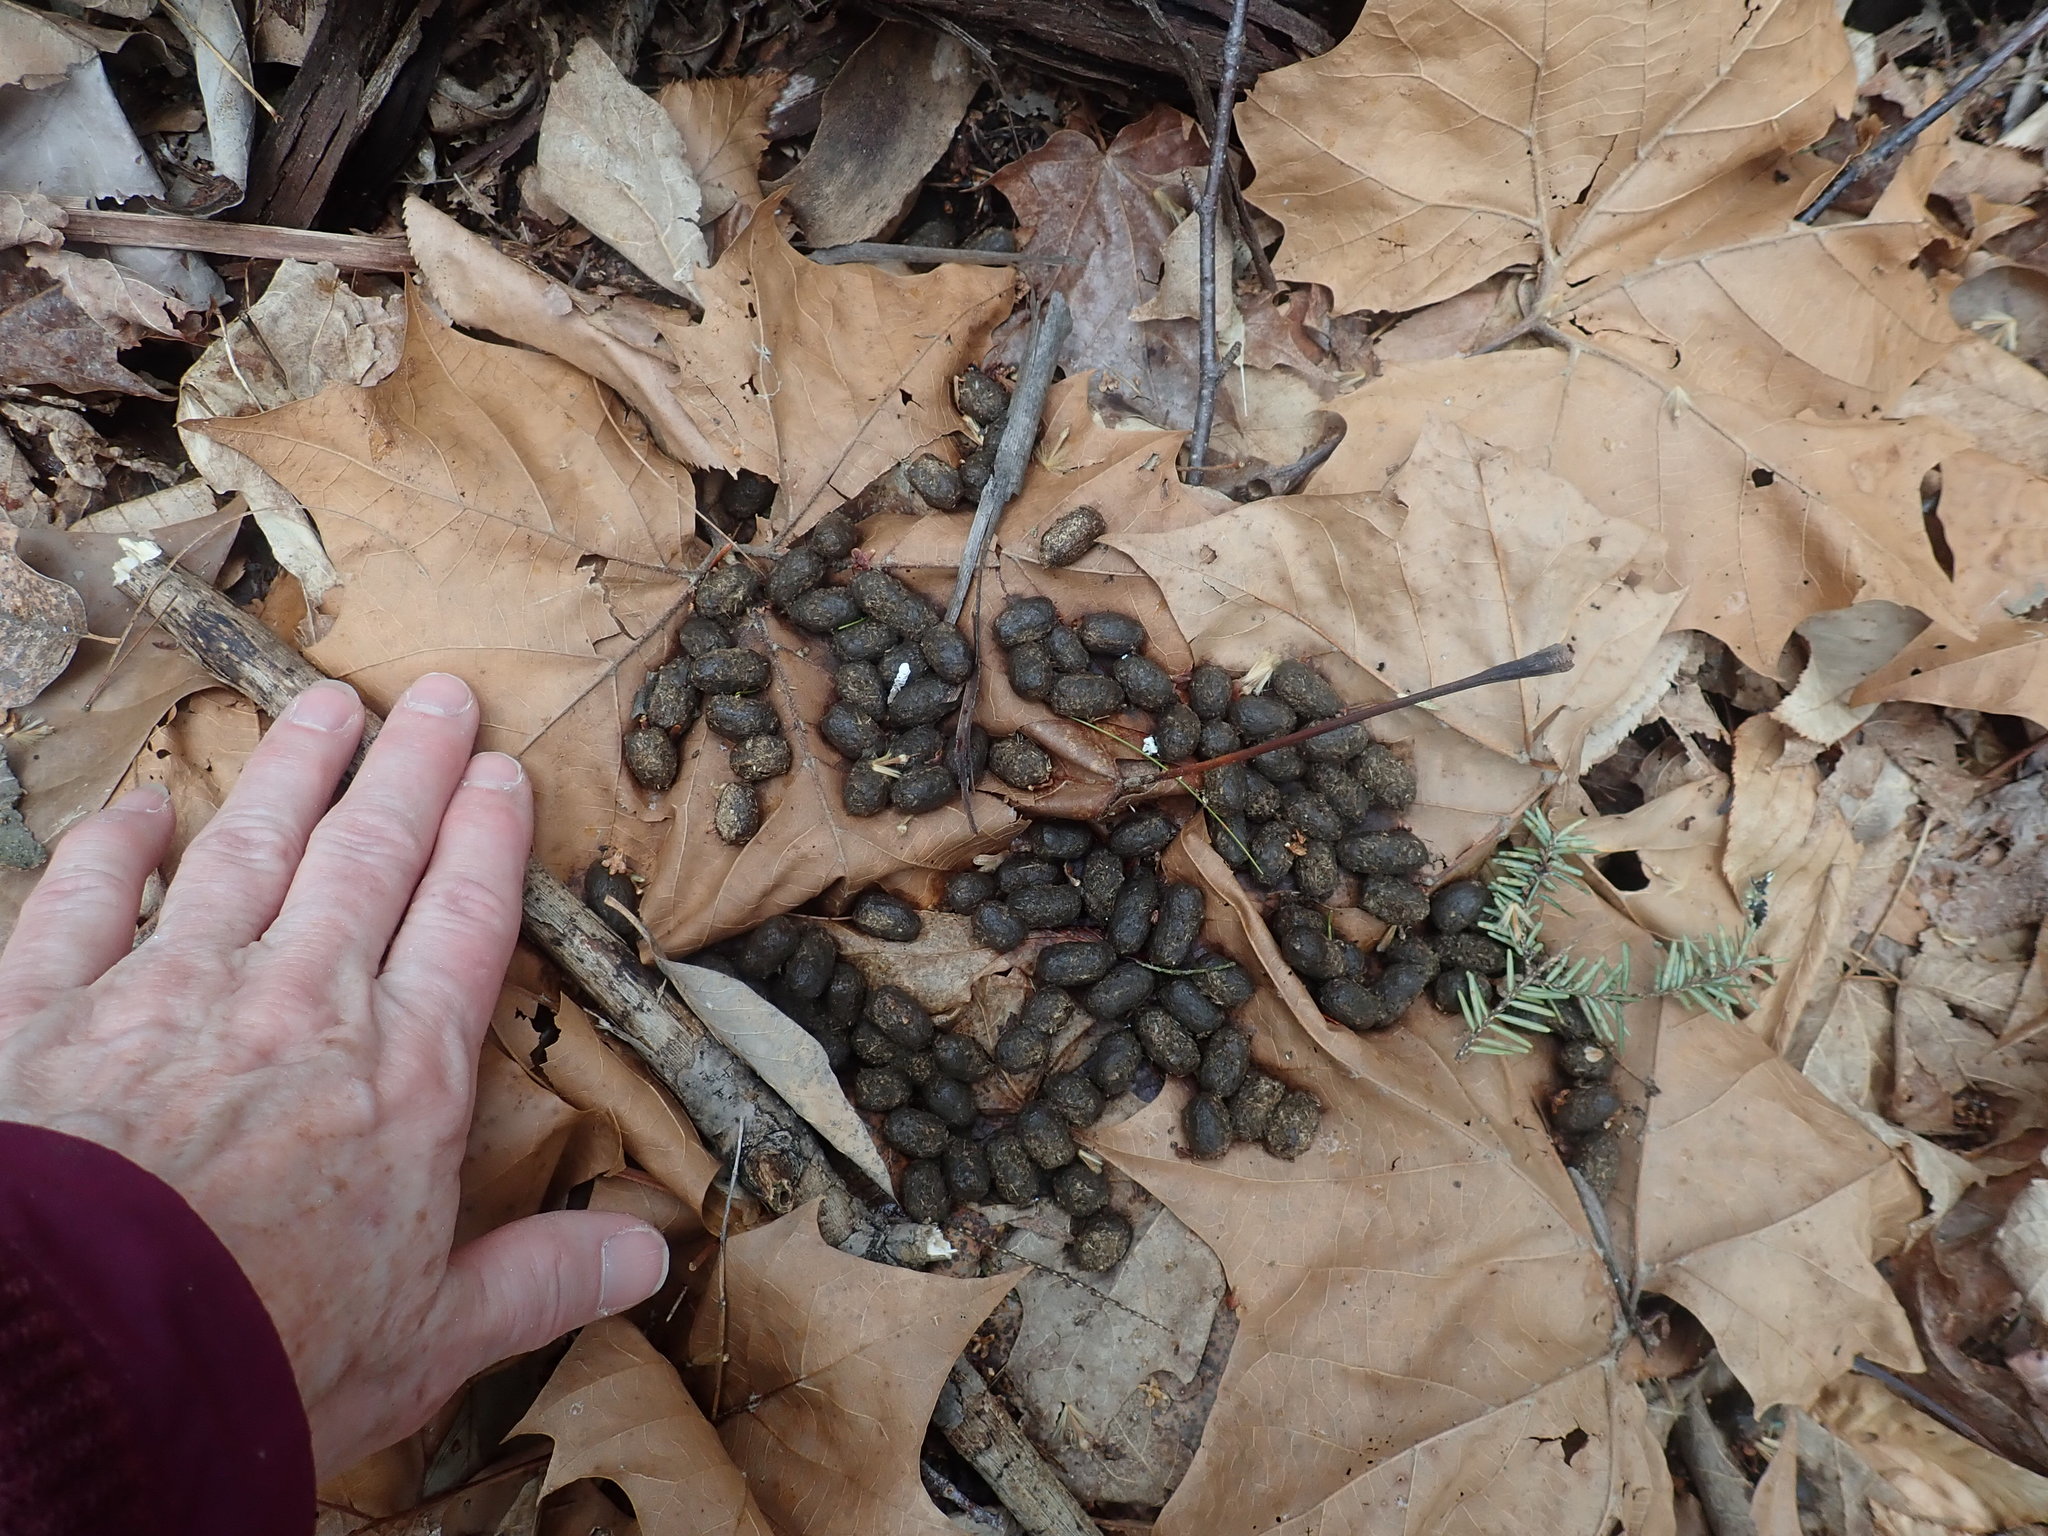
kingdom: Animalia
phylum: Chordata
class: Mammalia
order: Artiodactyla
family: Cervidae
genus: Odocoileus
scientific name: Odocoileus virginianus
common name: White-tailed deer
